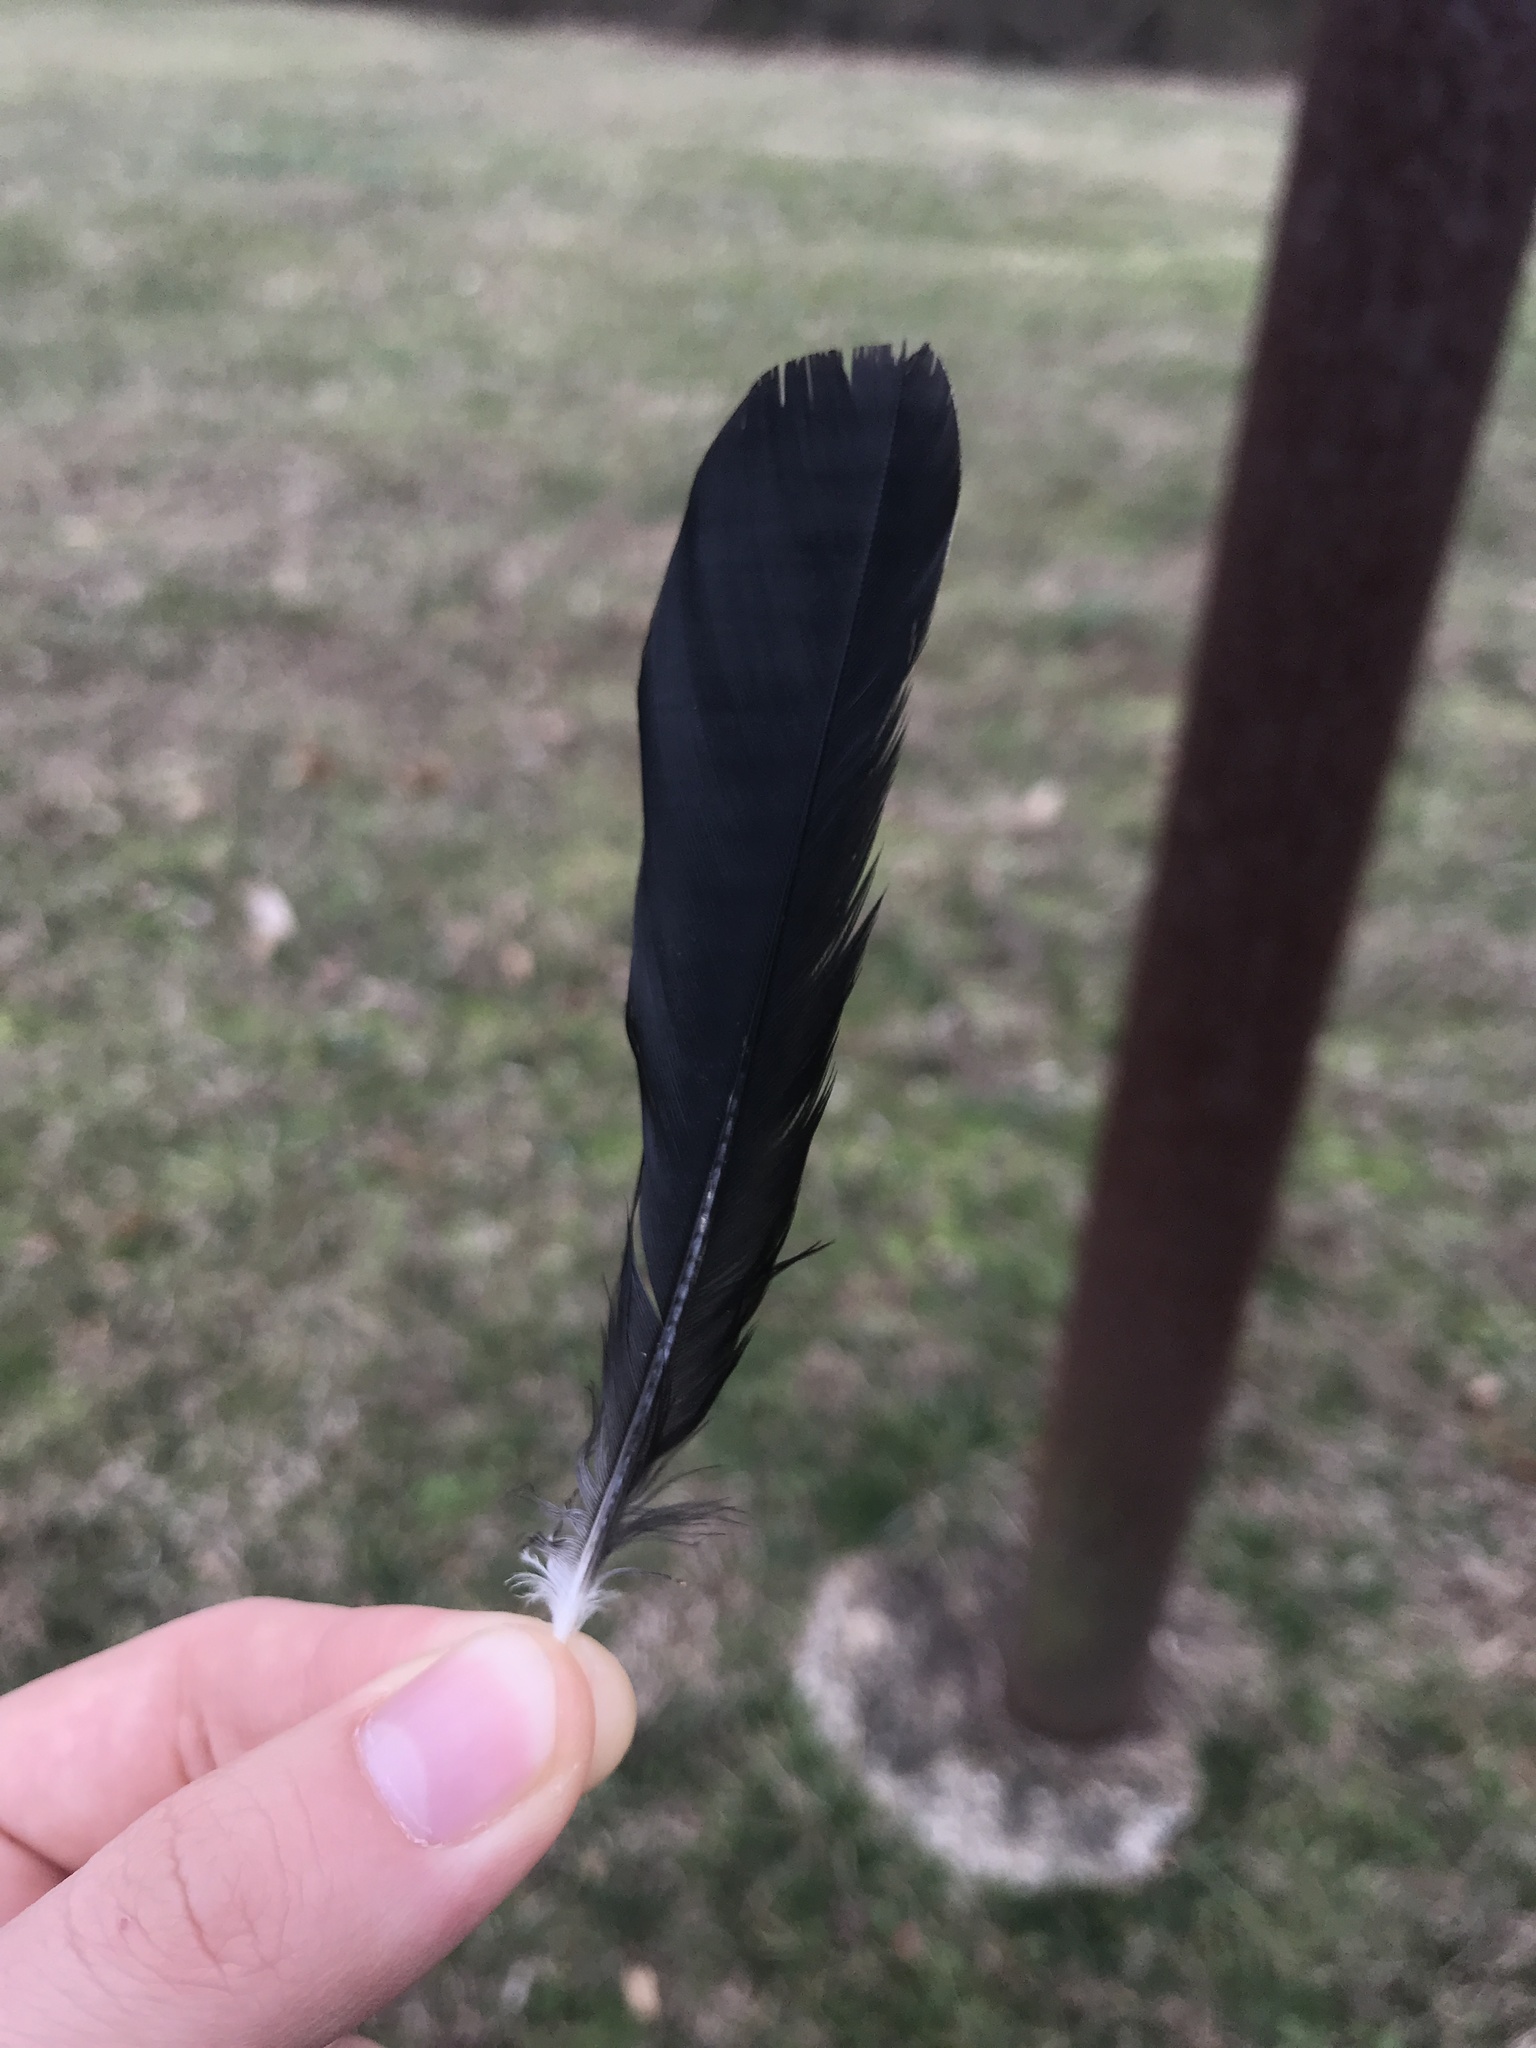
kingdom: Animalia
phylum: Chordata
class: Aves
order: Passeriformes
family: Icteridae
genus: Agelaius
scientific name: Agelaius phoeniceus
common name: Red-winged blackbird
